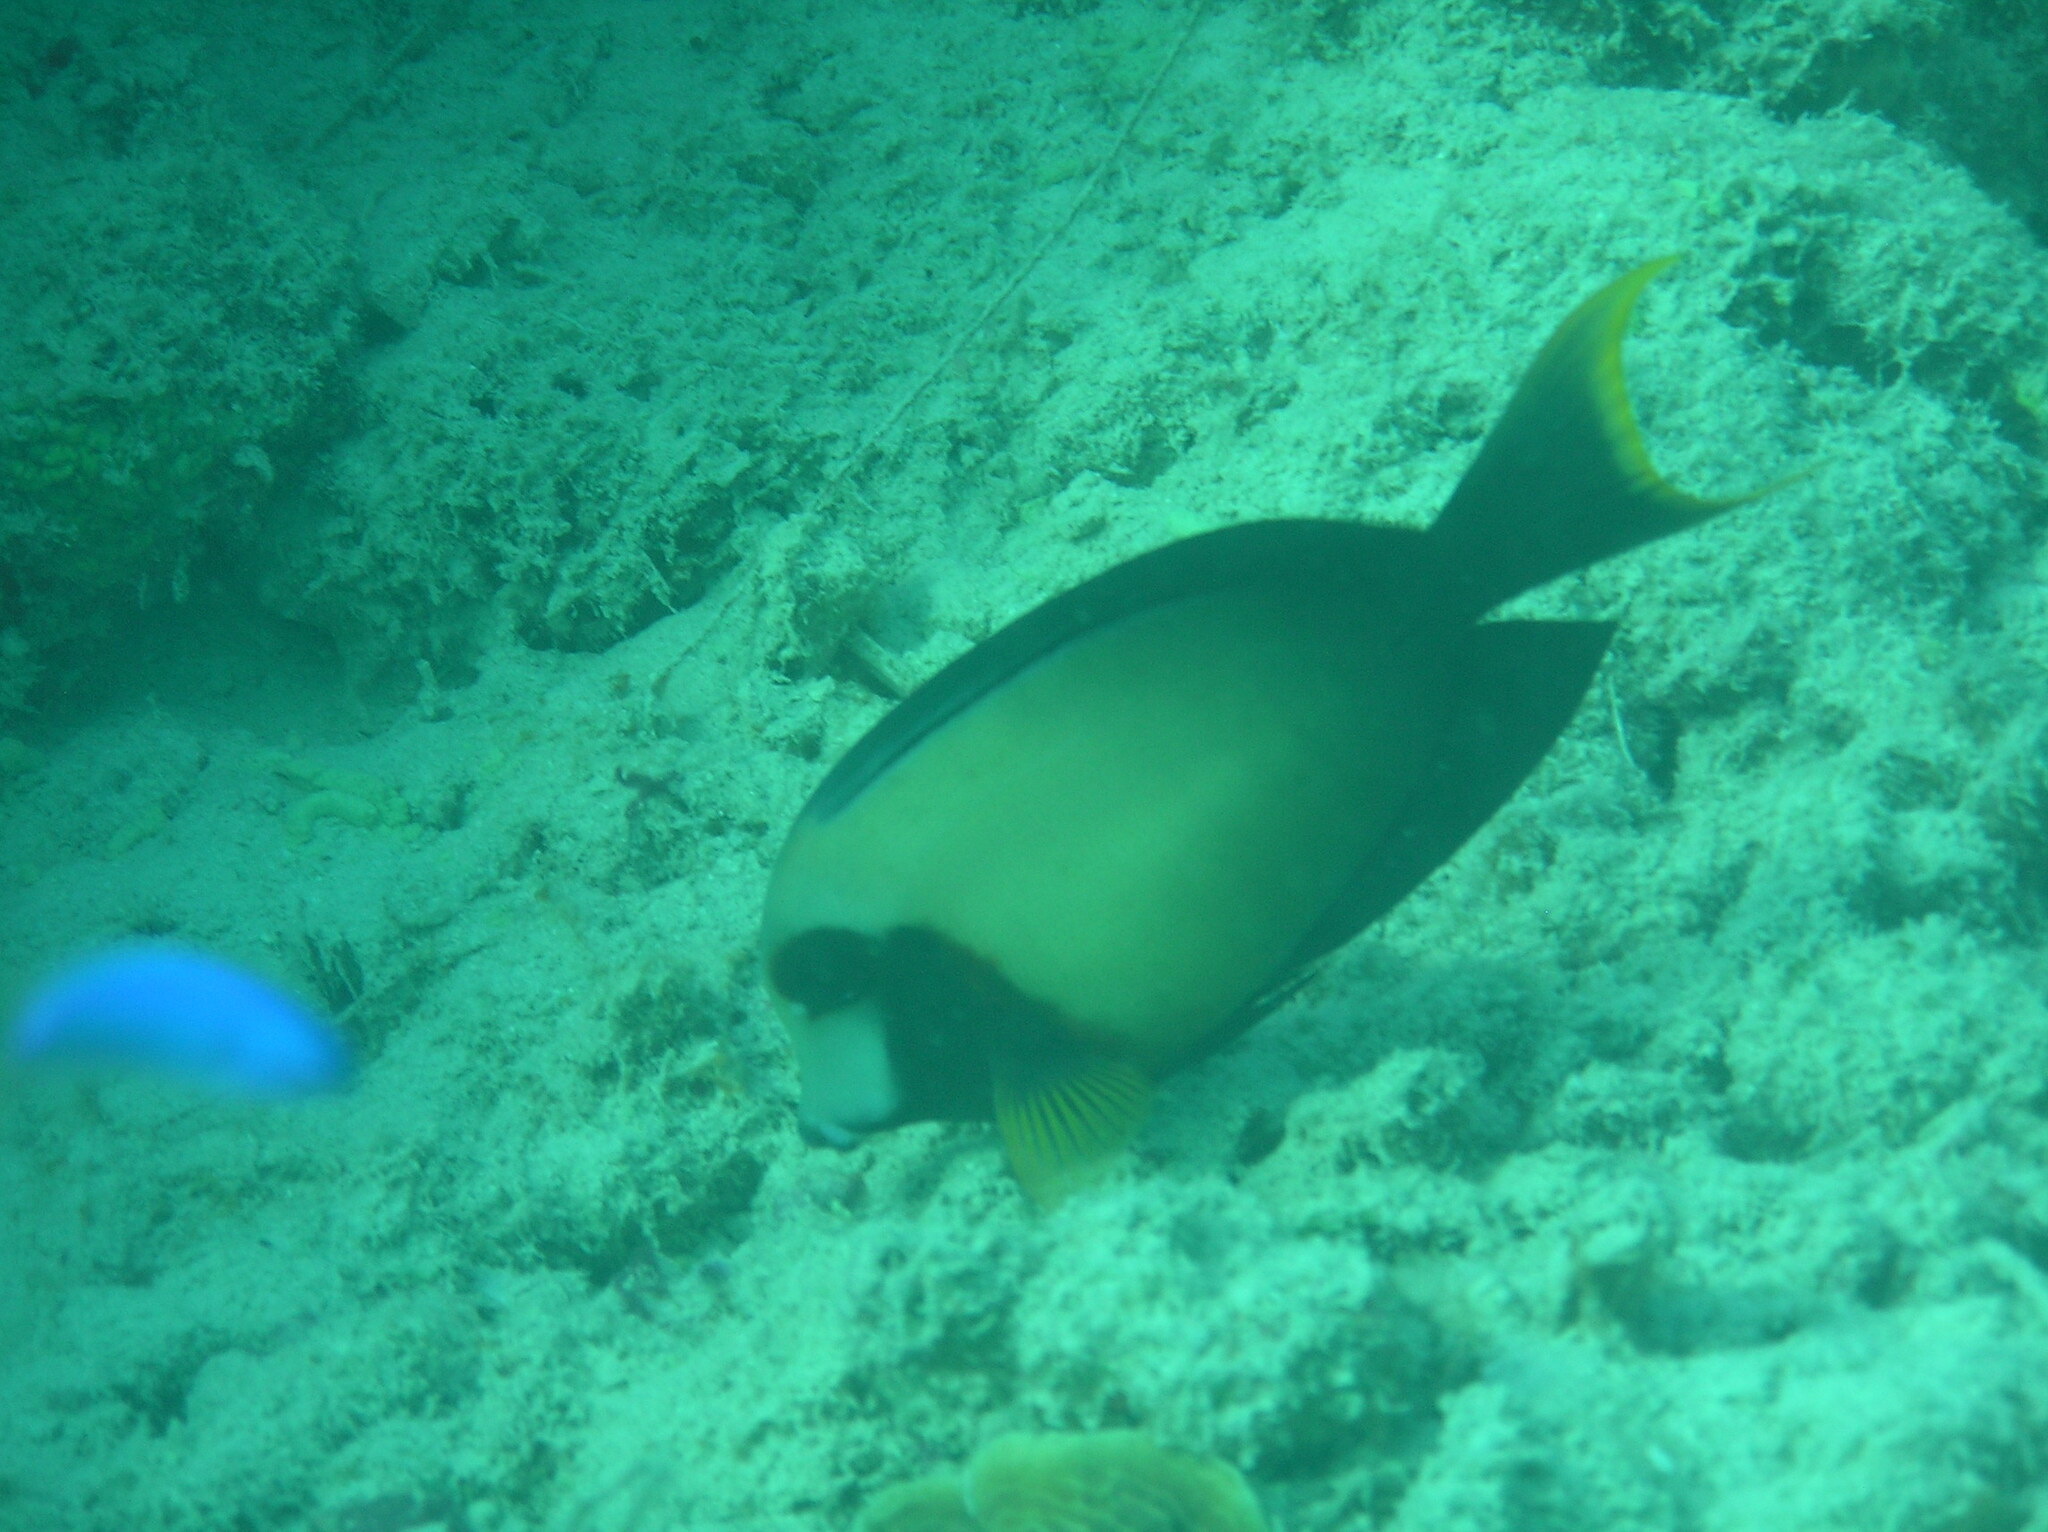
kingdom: Animalia
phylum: Chordata
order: Perciformes
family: Acanthuridae
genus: Acanthurus
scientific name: Acanthurus pyroferus
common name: Chocolate surgeonfish
